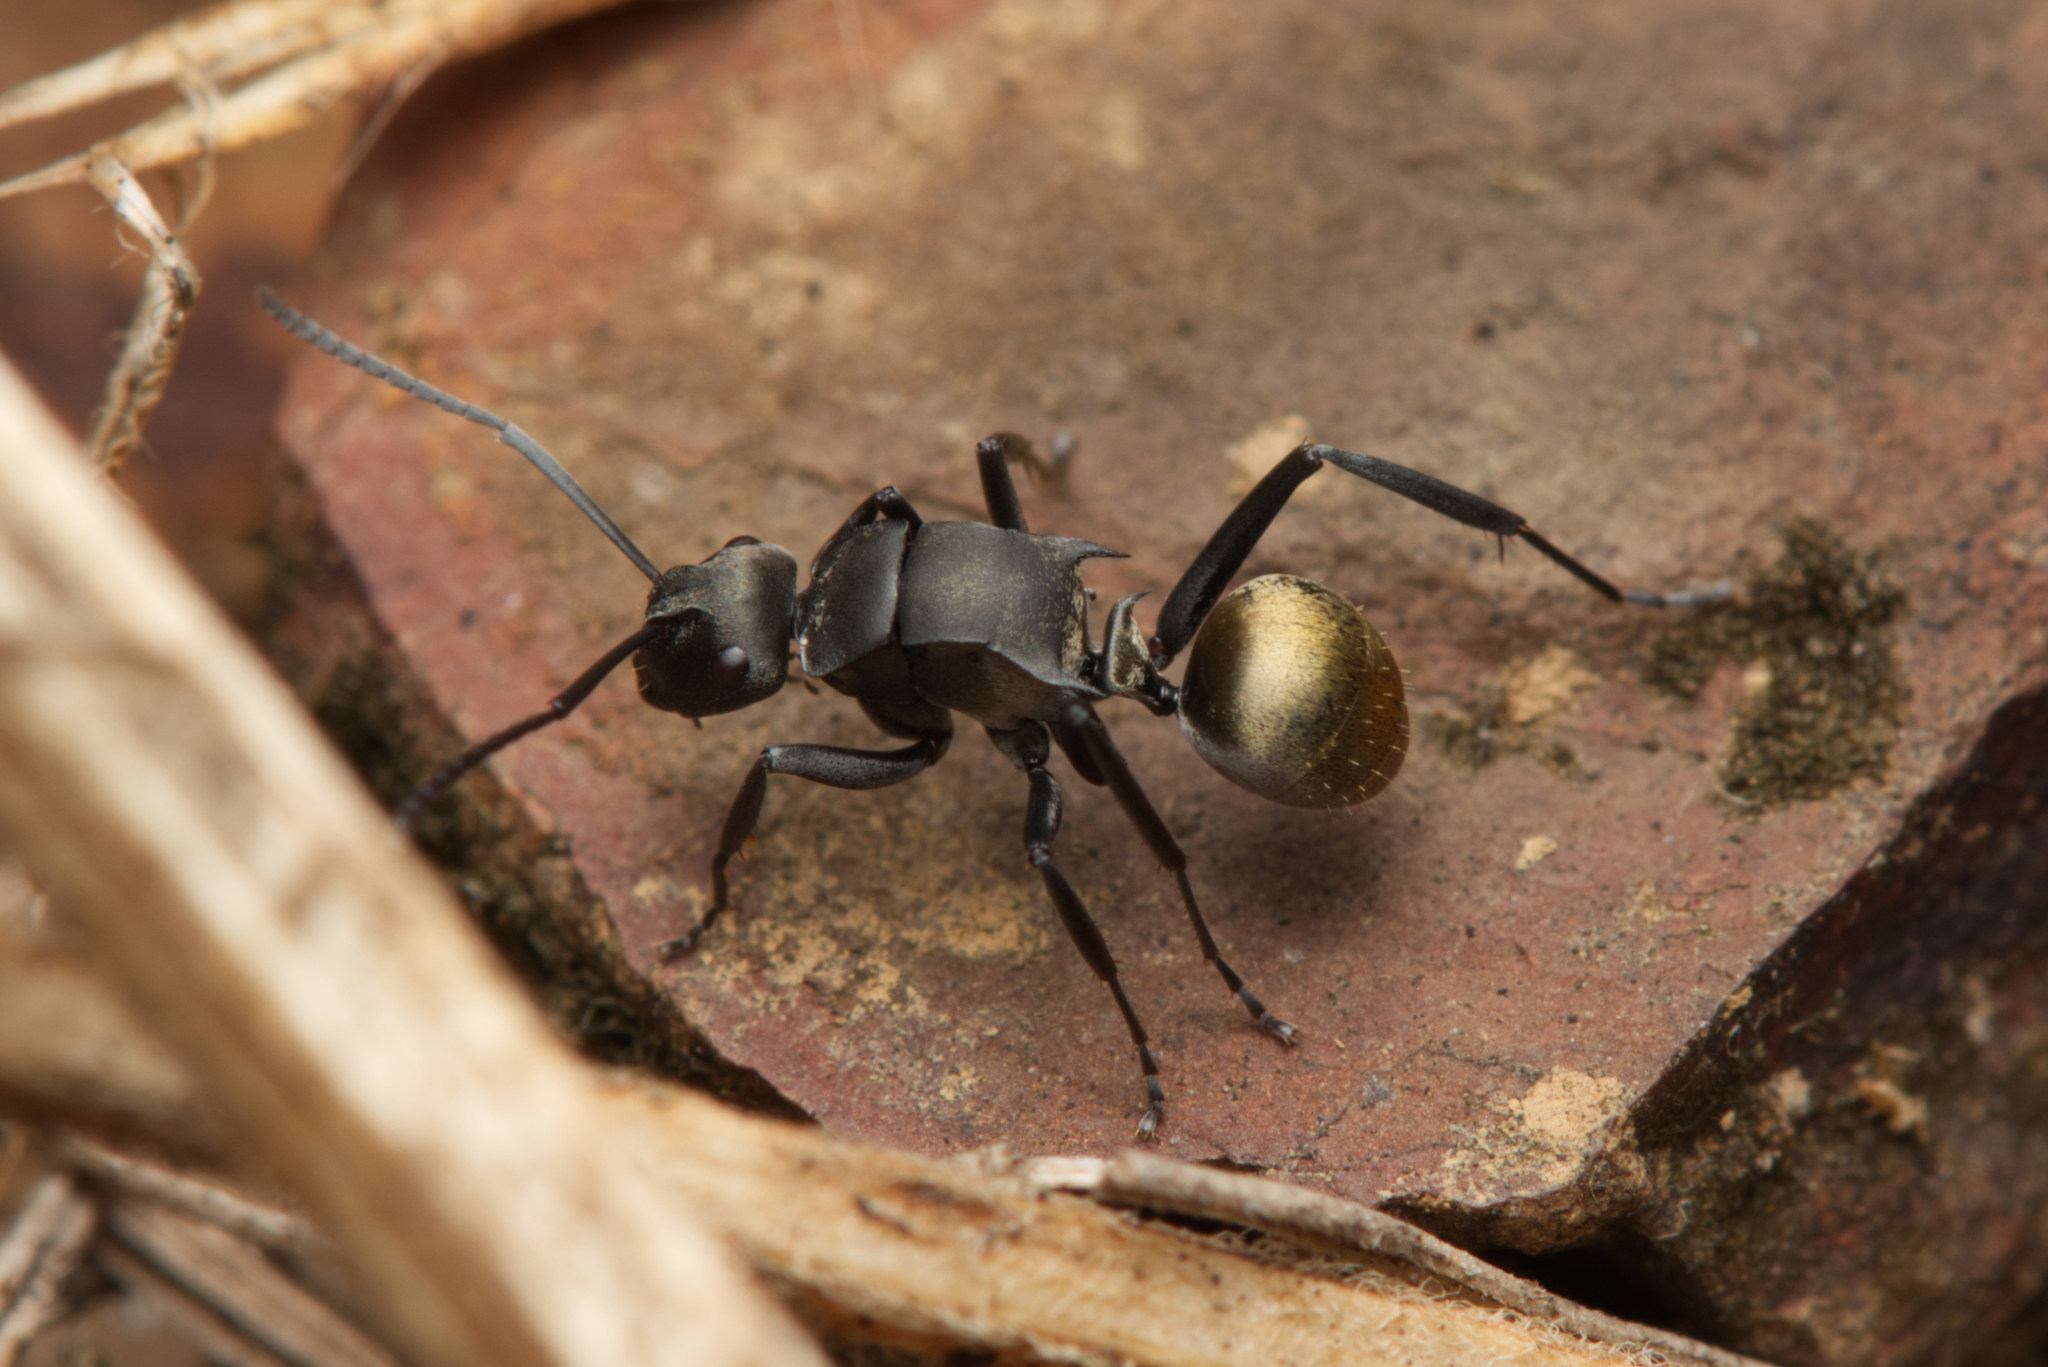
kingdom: Animalia
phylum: Arthropoda
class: Insecta
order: Hymenoptera
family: Formicidae
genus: Polyrhachis
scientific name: Polyrhachis tubifera
